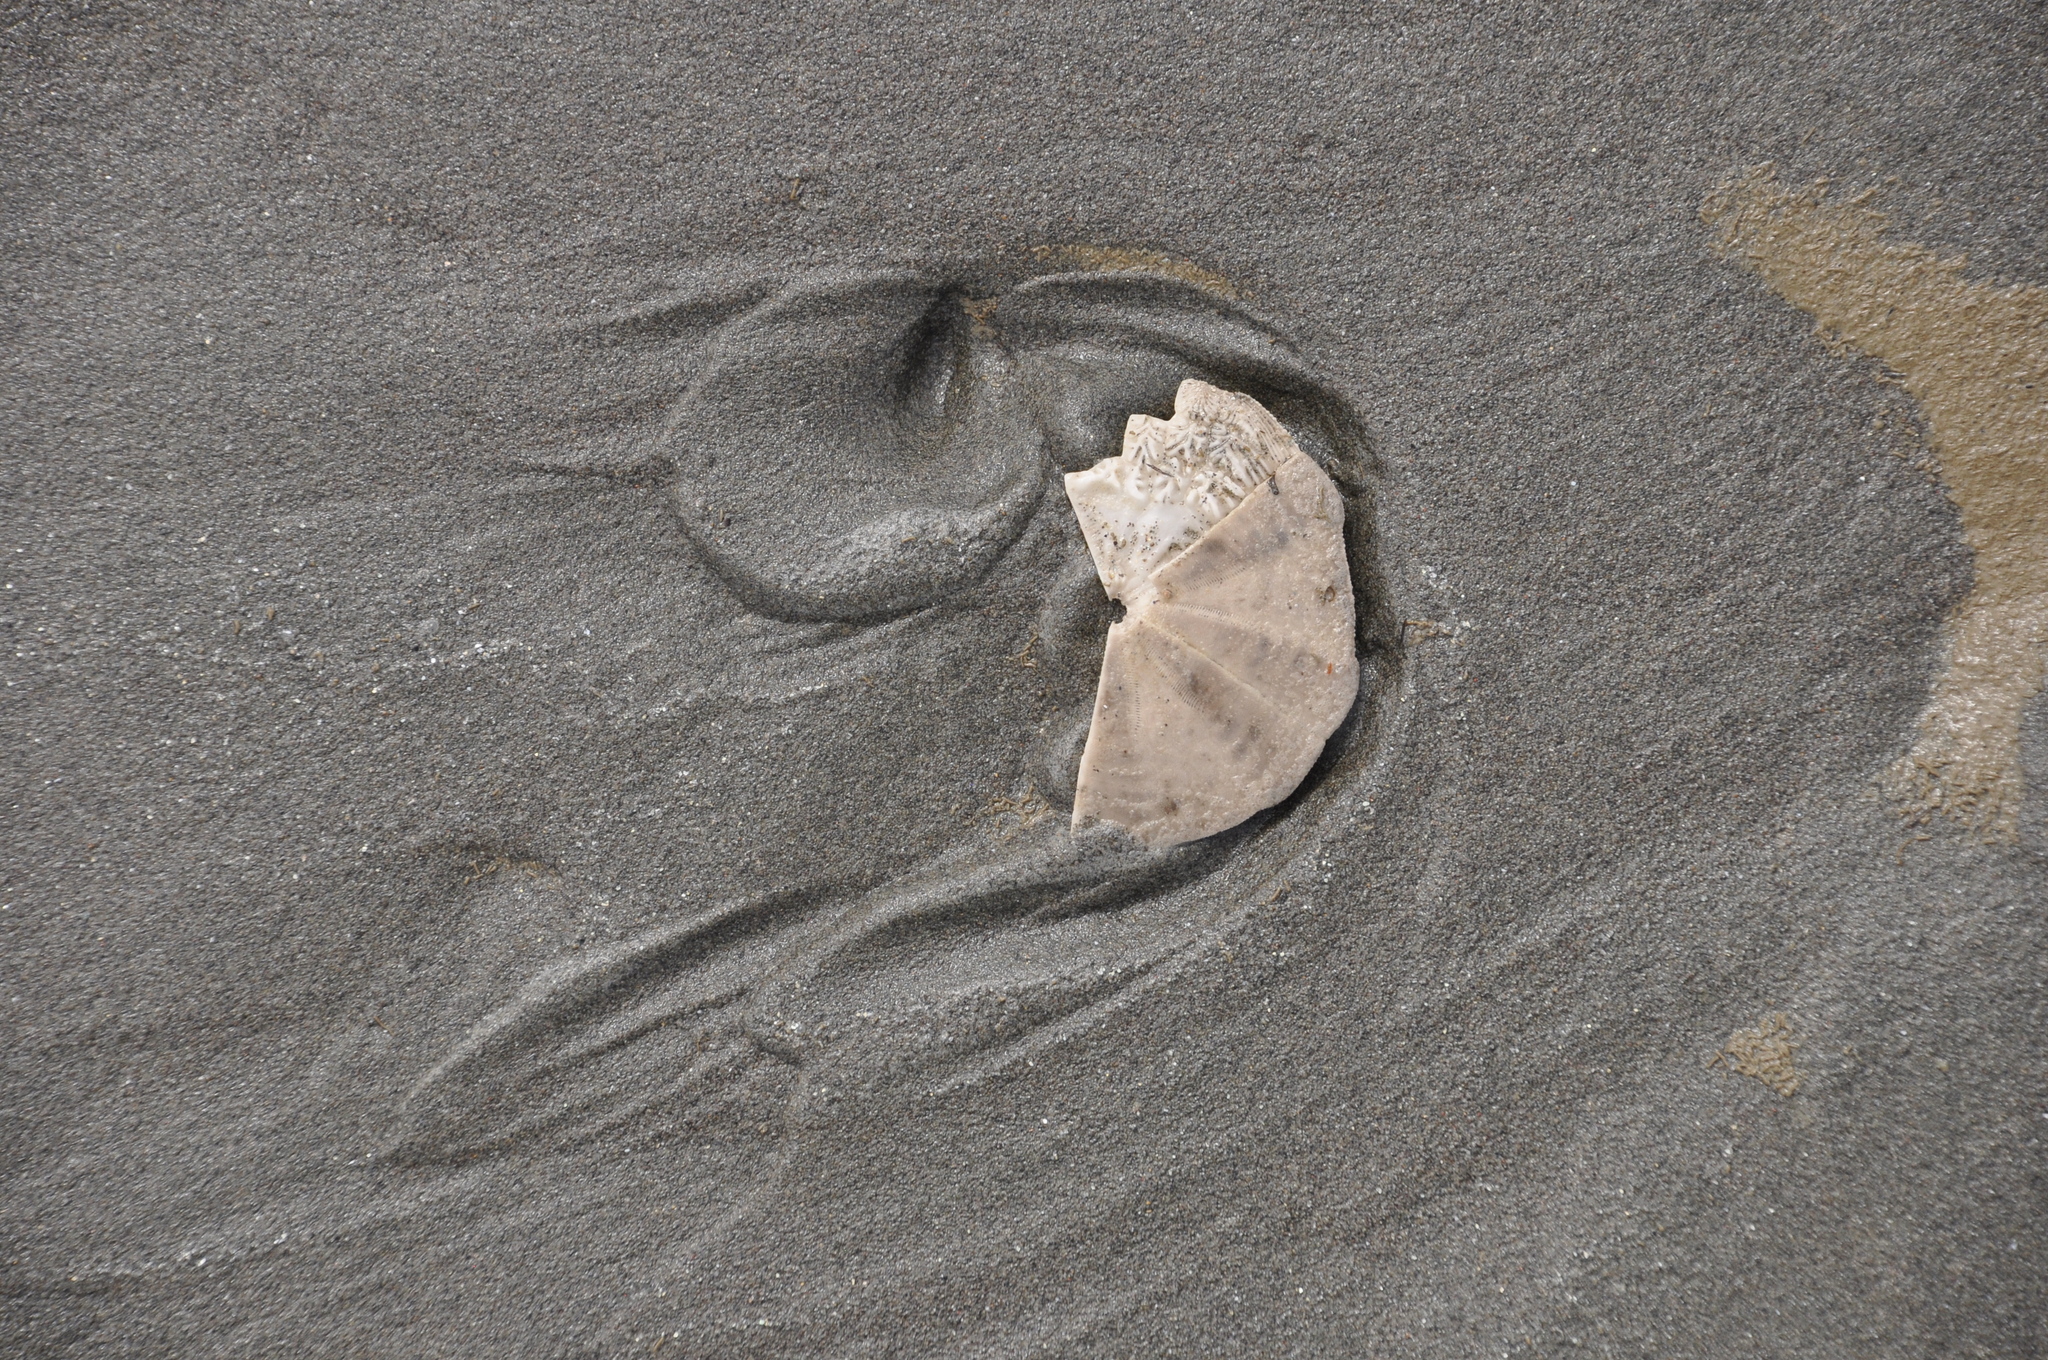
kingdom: Animalia
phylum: Echinodermata
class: Echinoidea
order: Clypeasteroida
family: Clypeasteridae
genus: Fellaster
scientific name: Fellaster zelandiae
